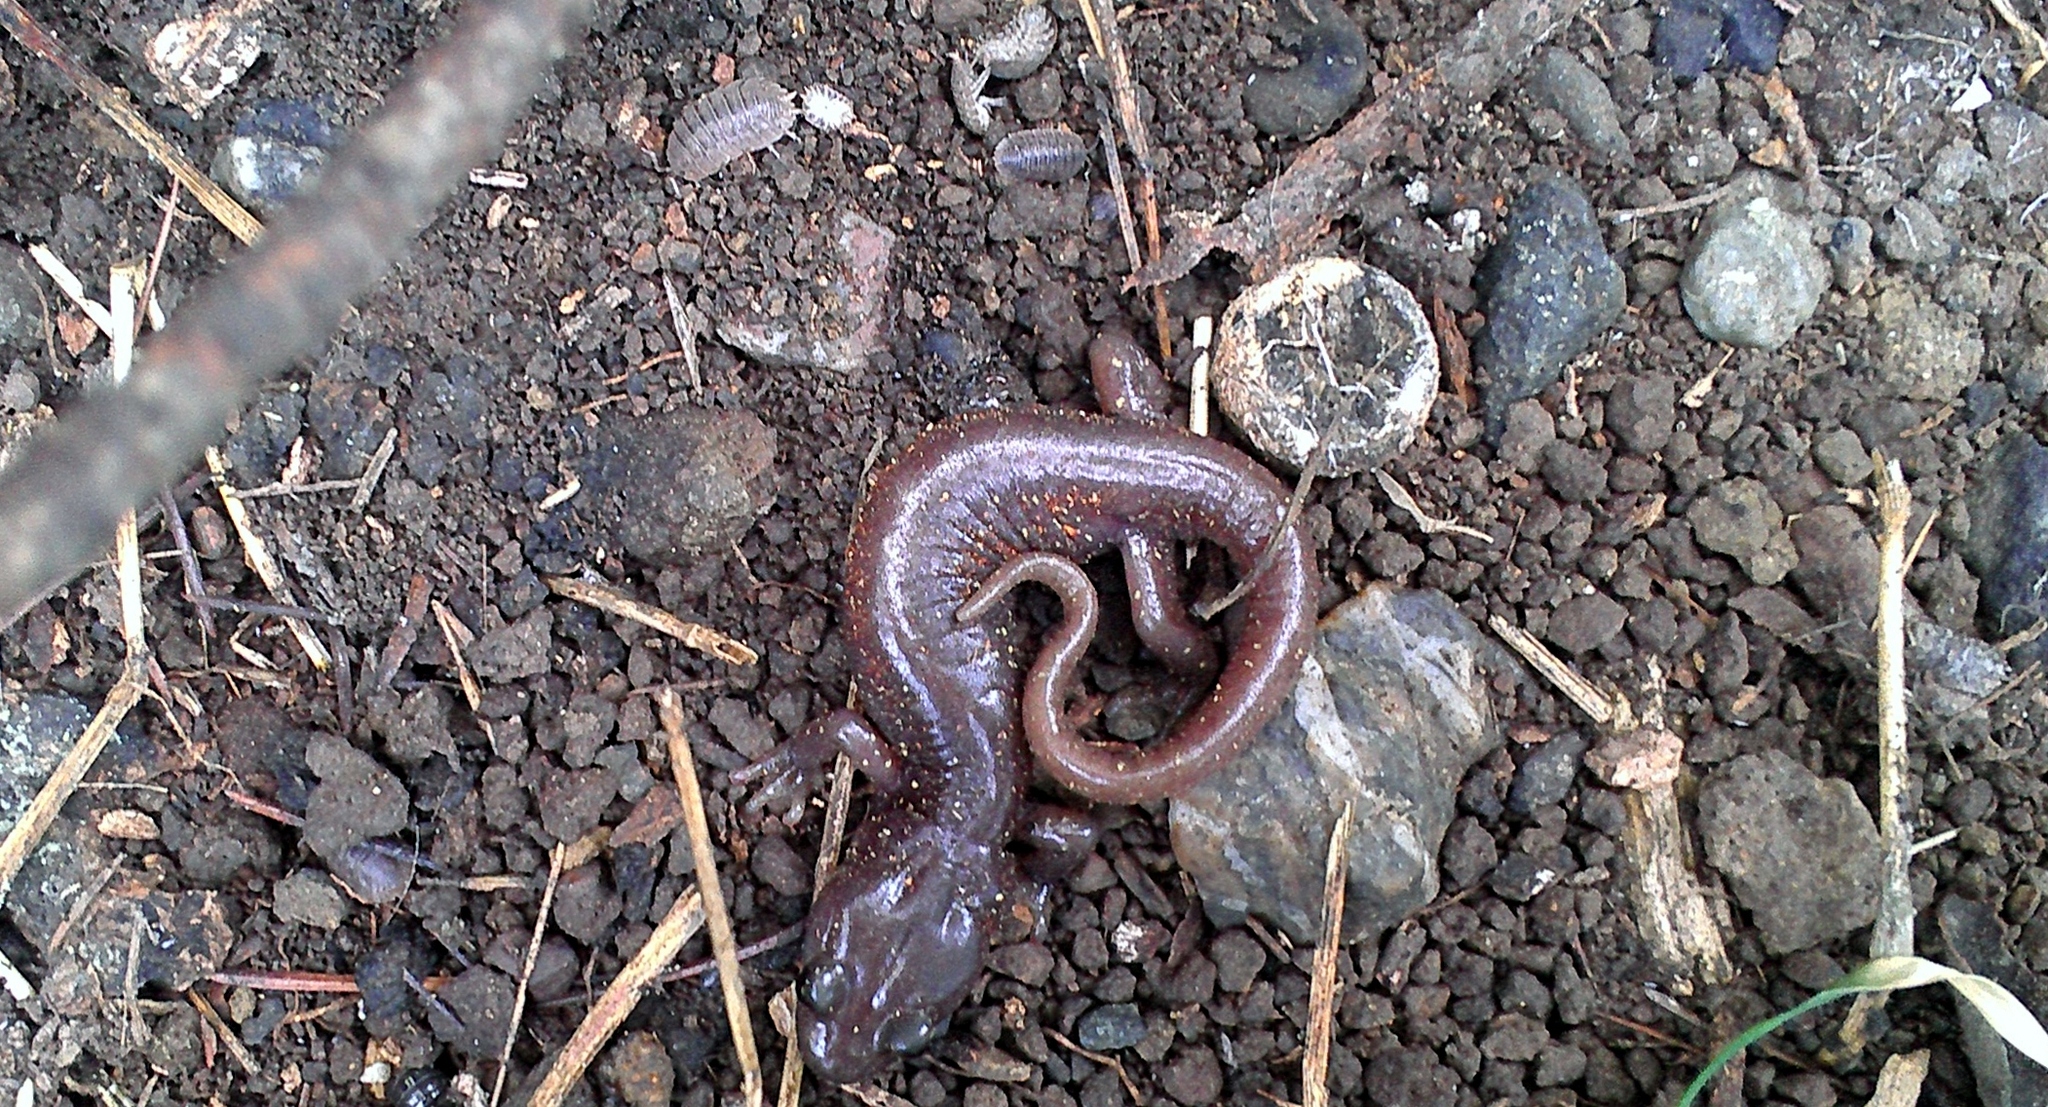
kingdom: Animalia
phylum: Chordata
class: Amphibia
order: Caudata
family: Plethodontidae
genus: Aneides
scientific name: Aneides lugubris
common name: Arboreal salamander
